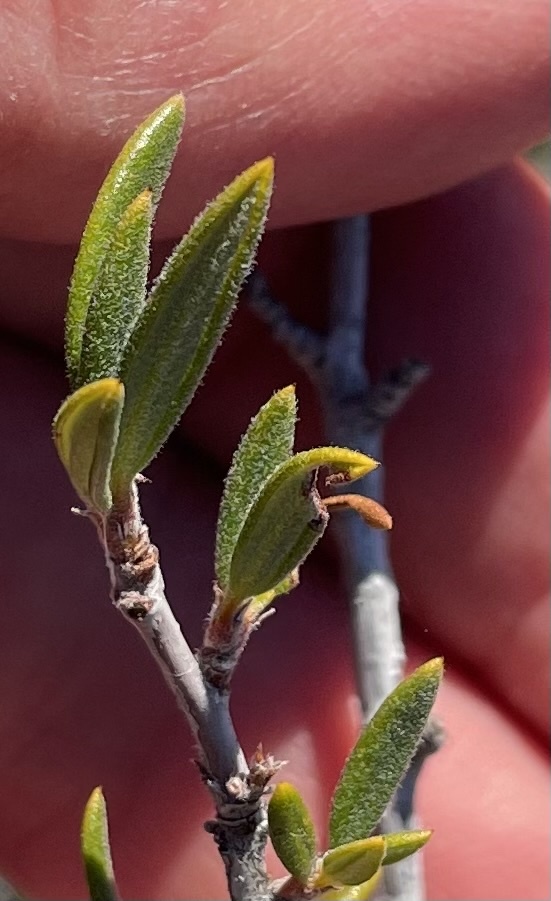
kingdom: Plantae
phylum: Tracheophyta
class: Magnoliopsida
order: Rosales
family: Rosaceae
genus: Cercocarpus
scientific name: Cercocarpus ledifolius
